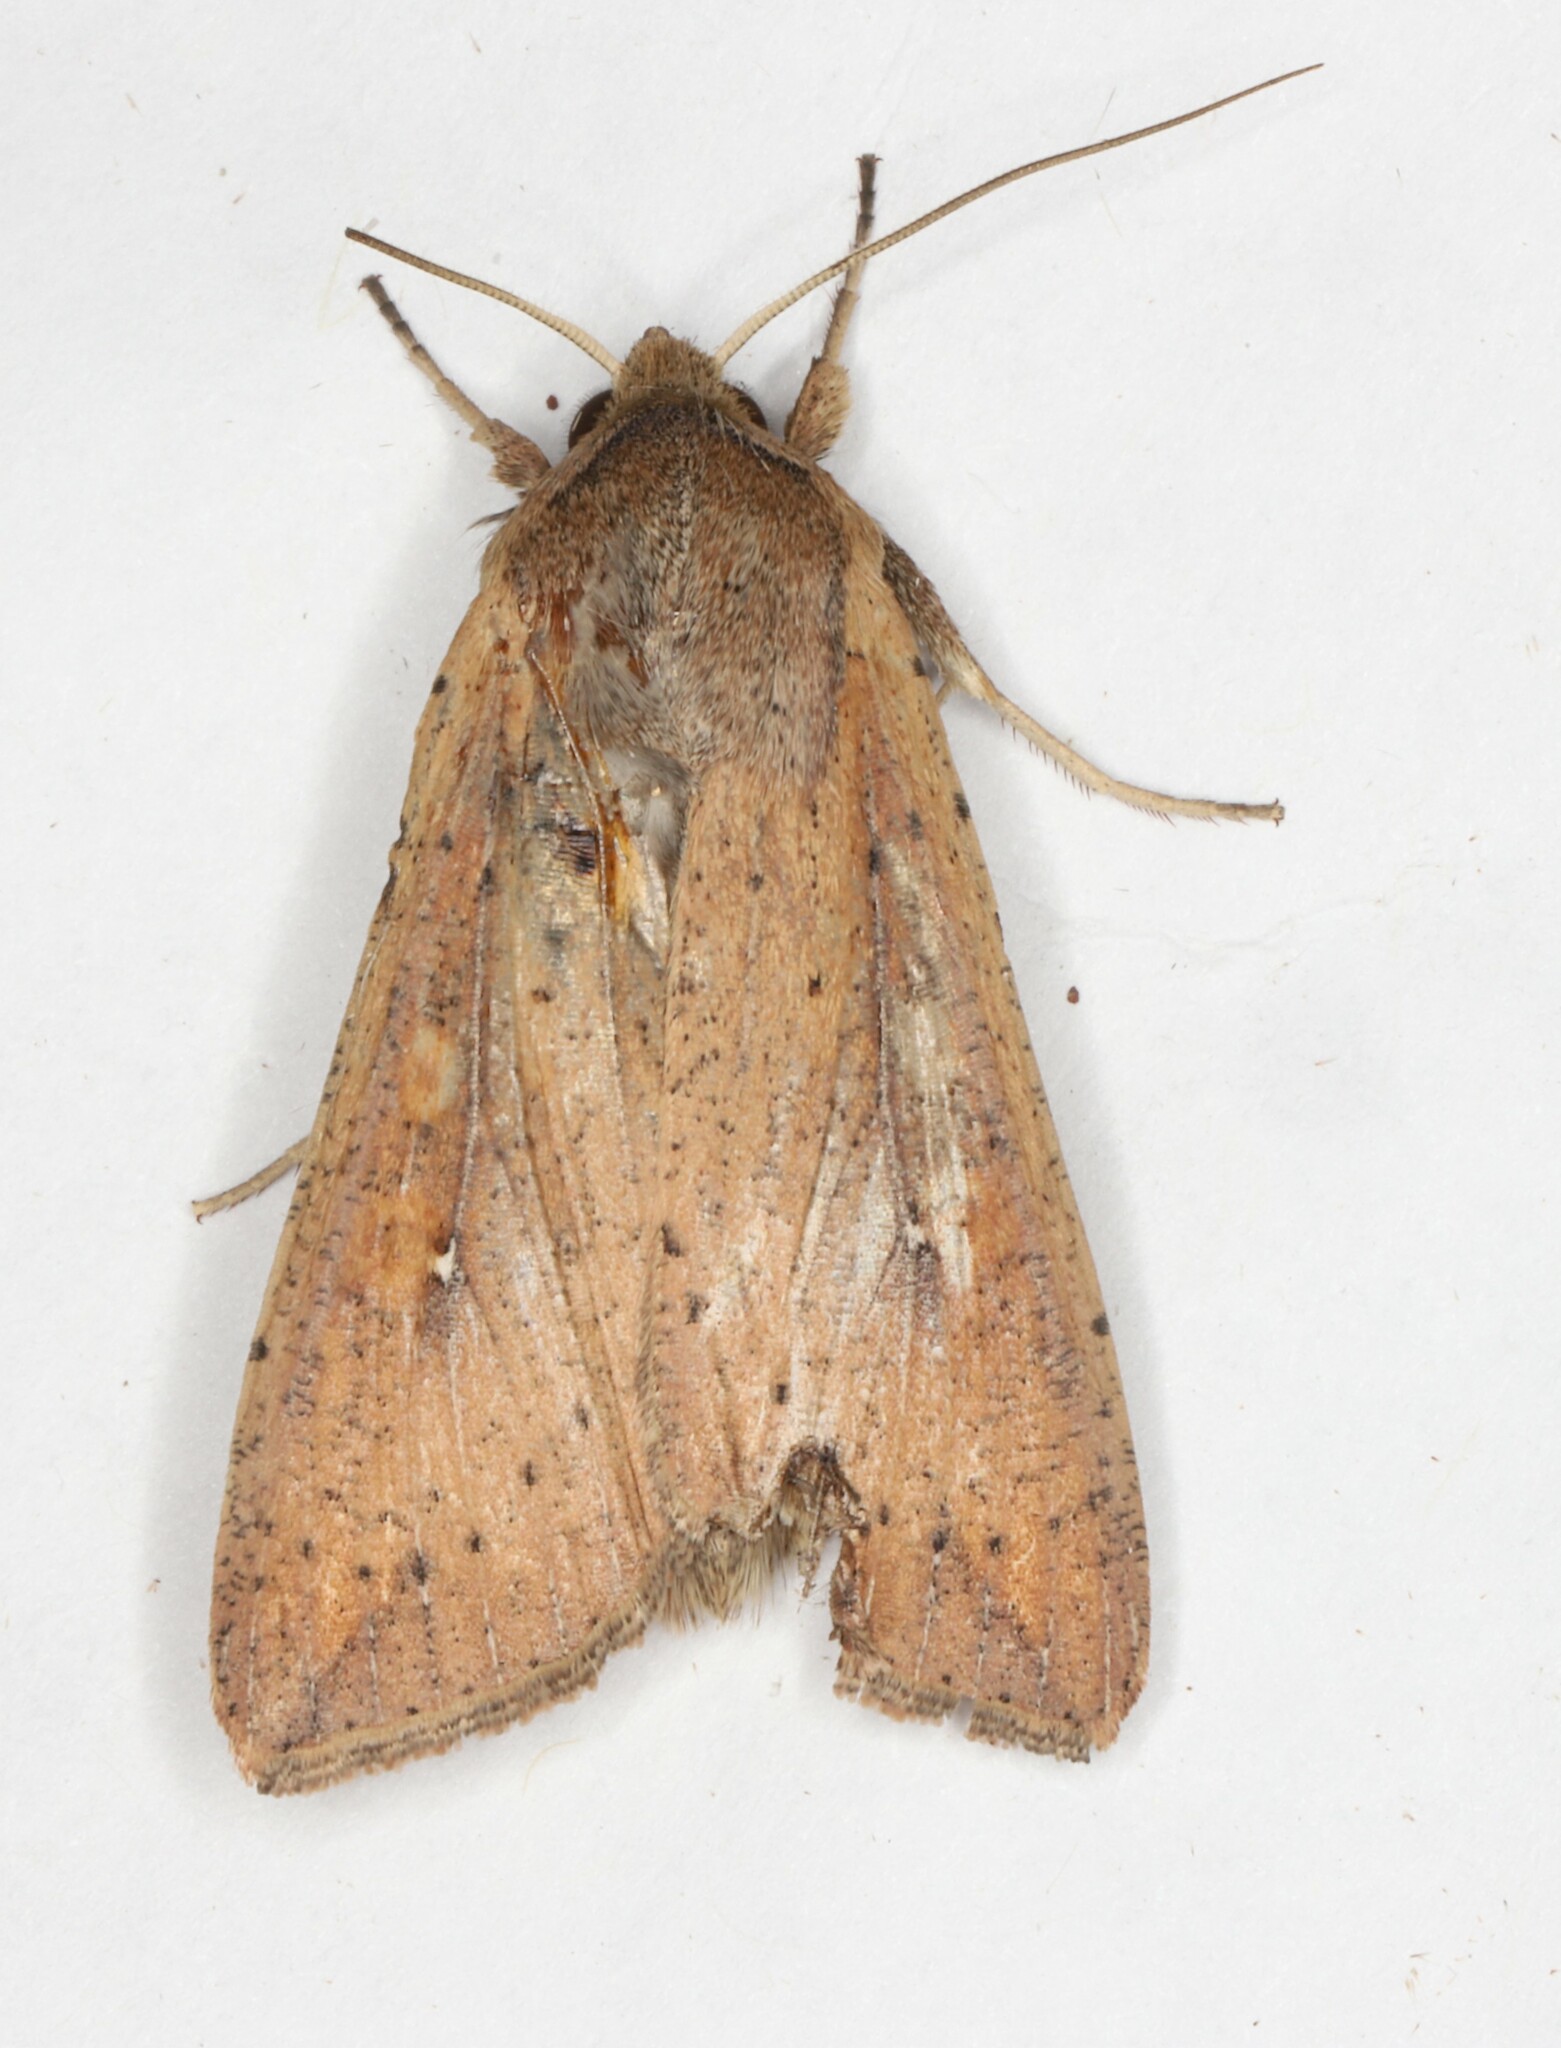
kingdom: Animalia
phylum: Arthropoda
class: Insecta
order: Lepidoptera
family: Noctuidae
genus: Mythimna
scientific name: Mythimna unipuncta
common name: White-speck
